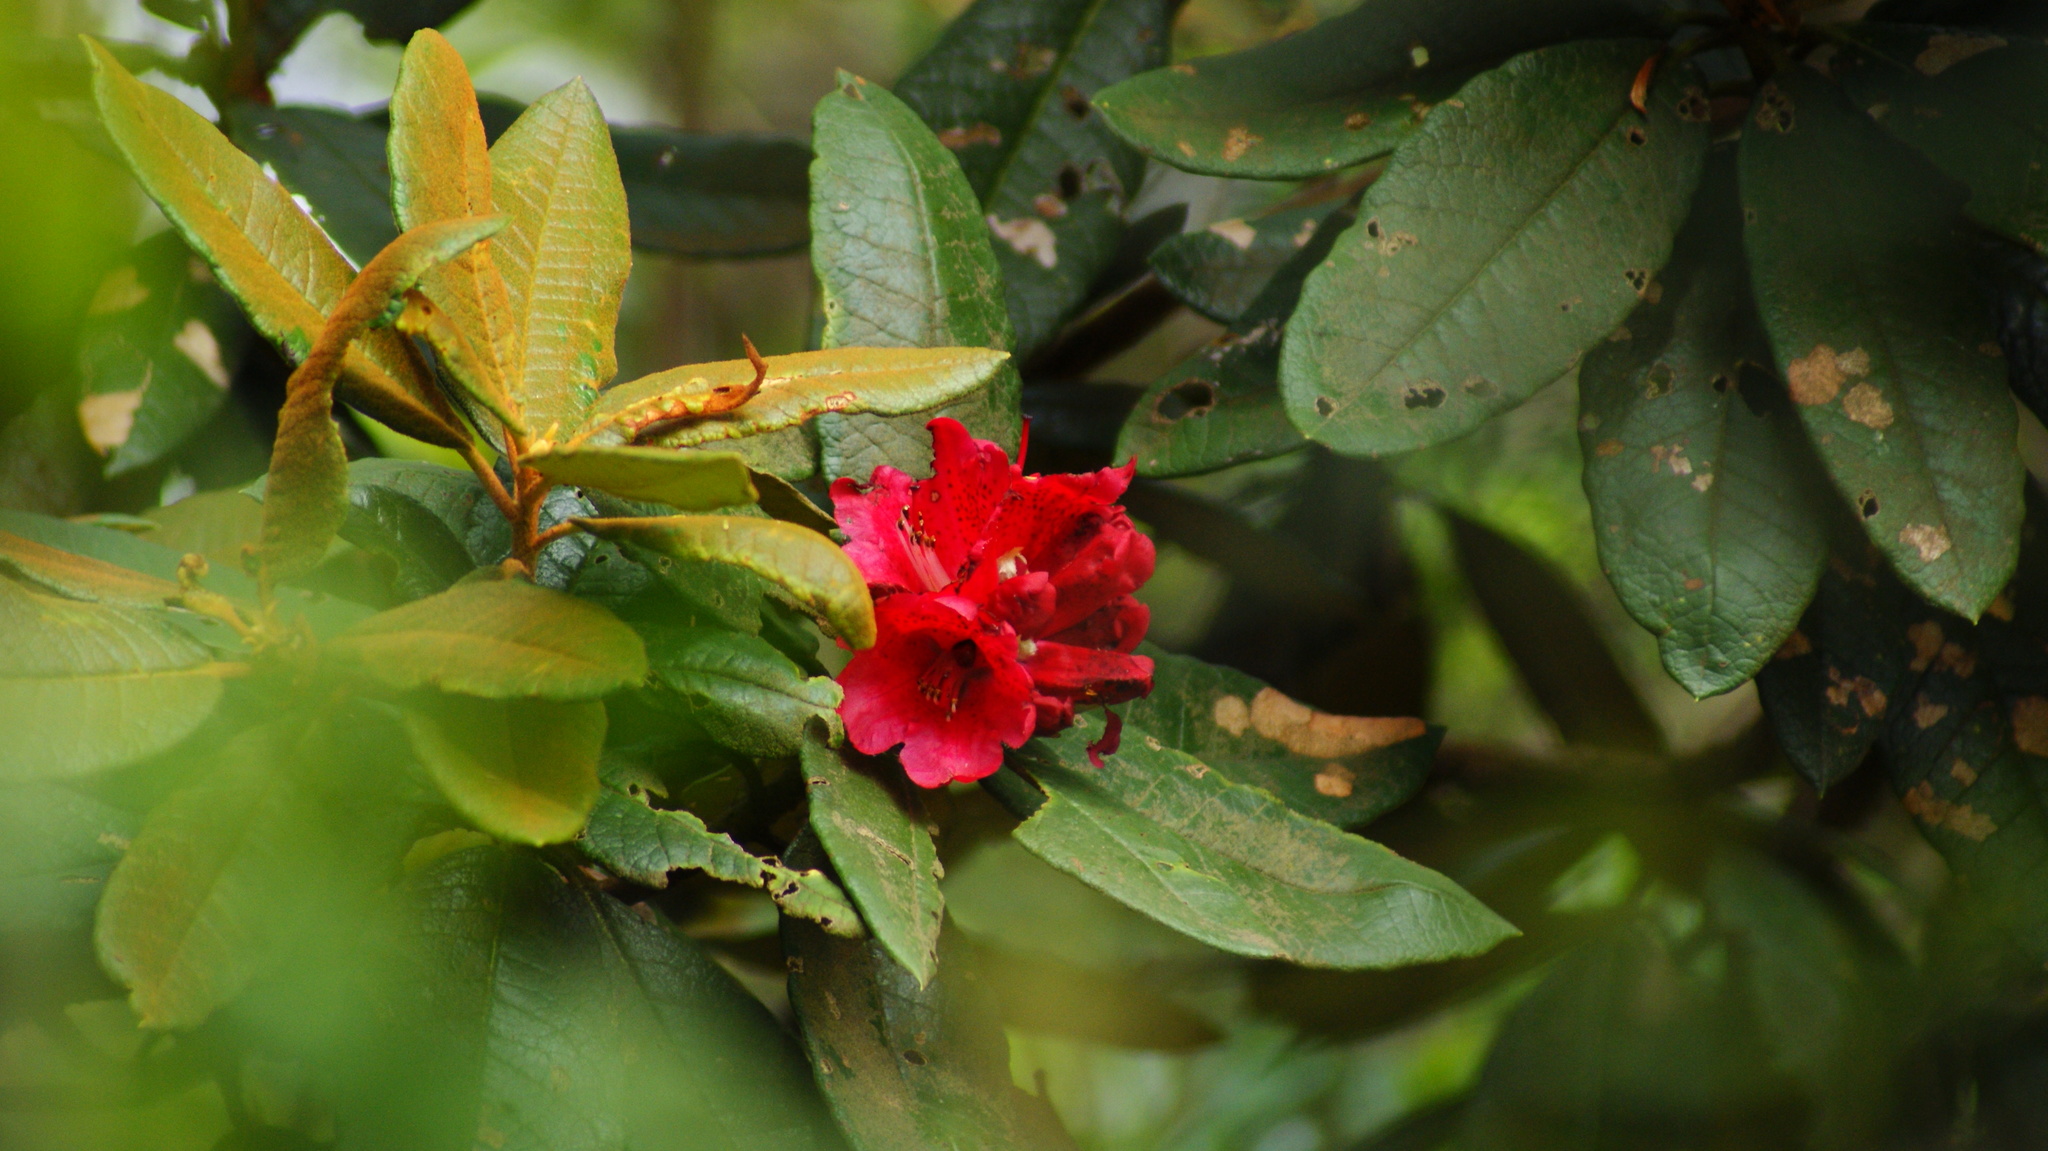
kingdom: Plantae
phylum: Tracheophyta
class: Magnoliopsida
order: Ericales
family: Ericaceae
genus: Rhododendron
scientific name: Rhododendron arboreum
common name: Tree rhododendron
